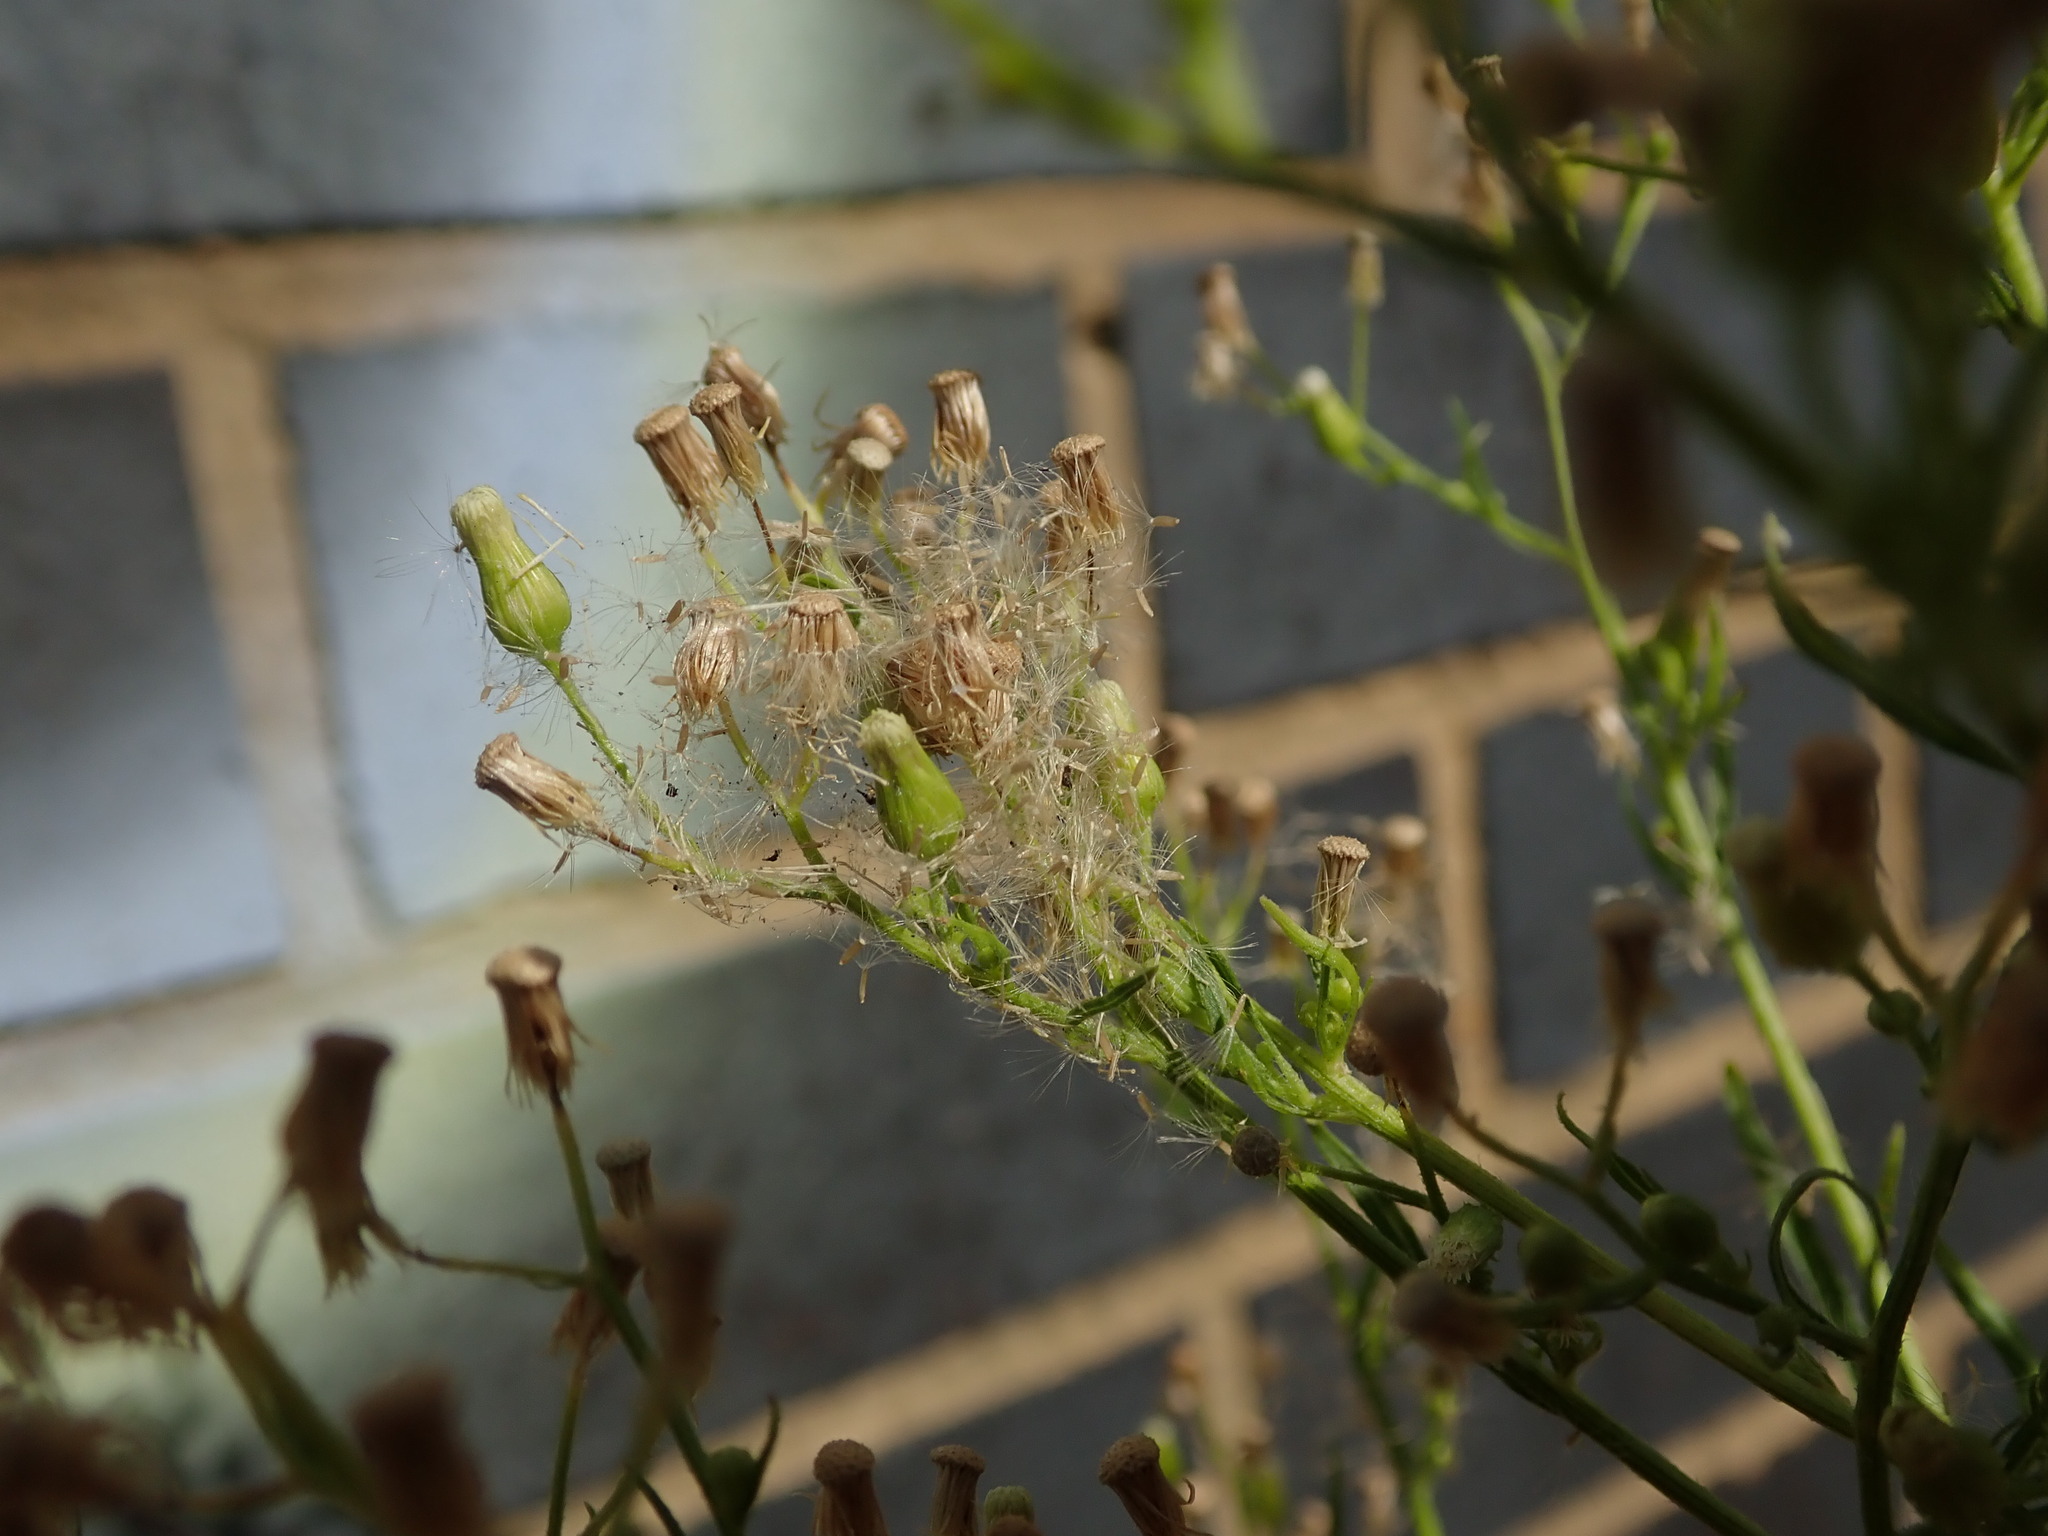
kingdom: Plantae
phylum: Tracheophyta
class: Magnoliopsida
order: Asterales
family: Asteraceae
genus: Erigeron
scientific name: Erigeron canadensis
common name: Canadian fleabane
